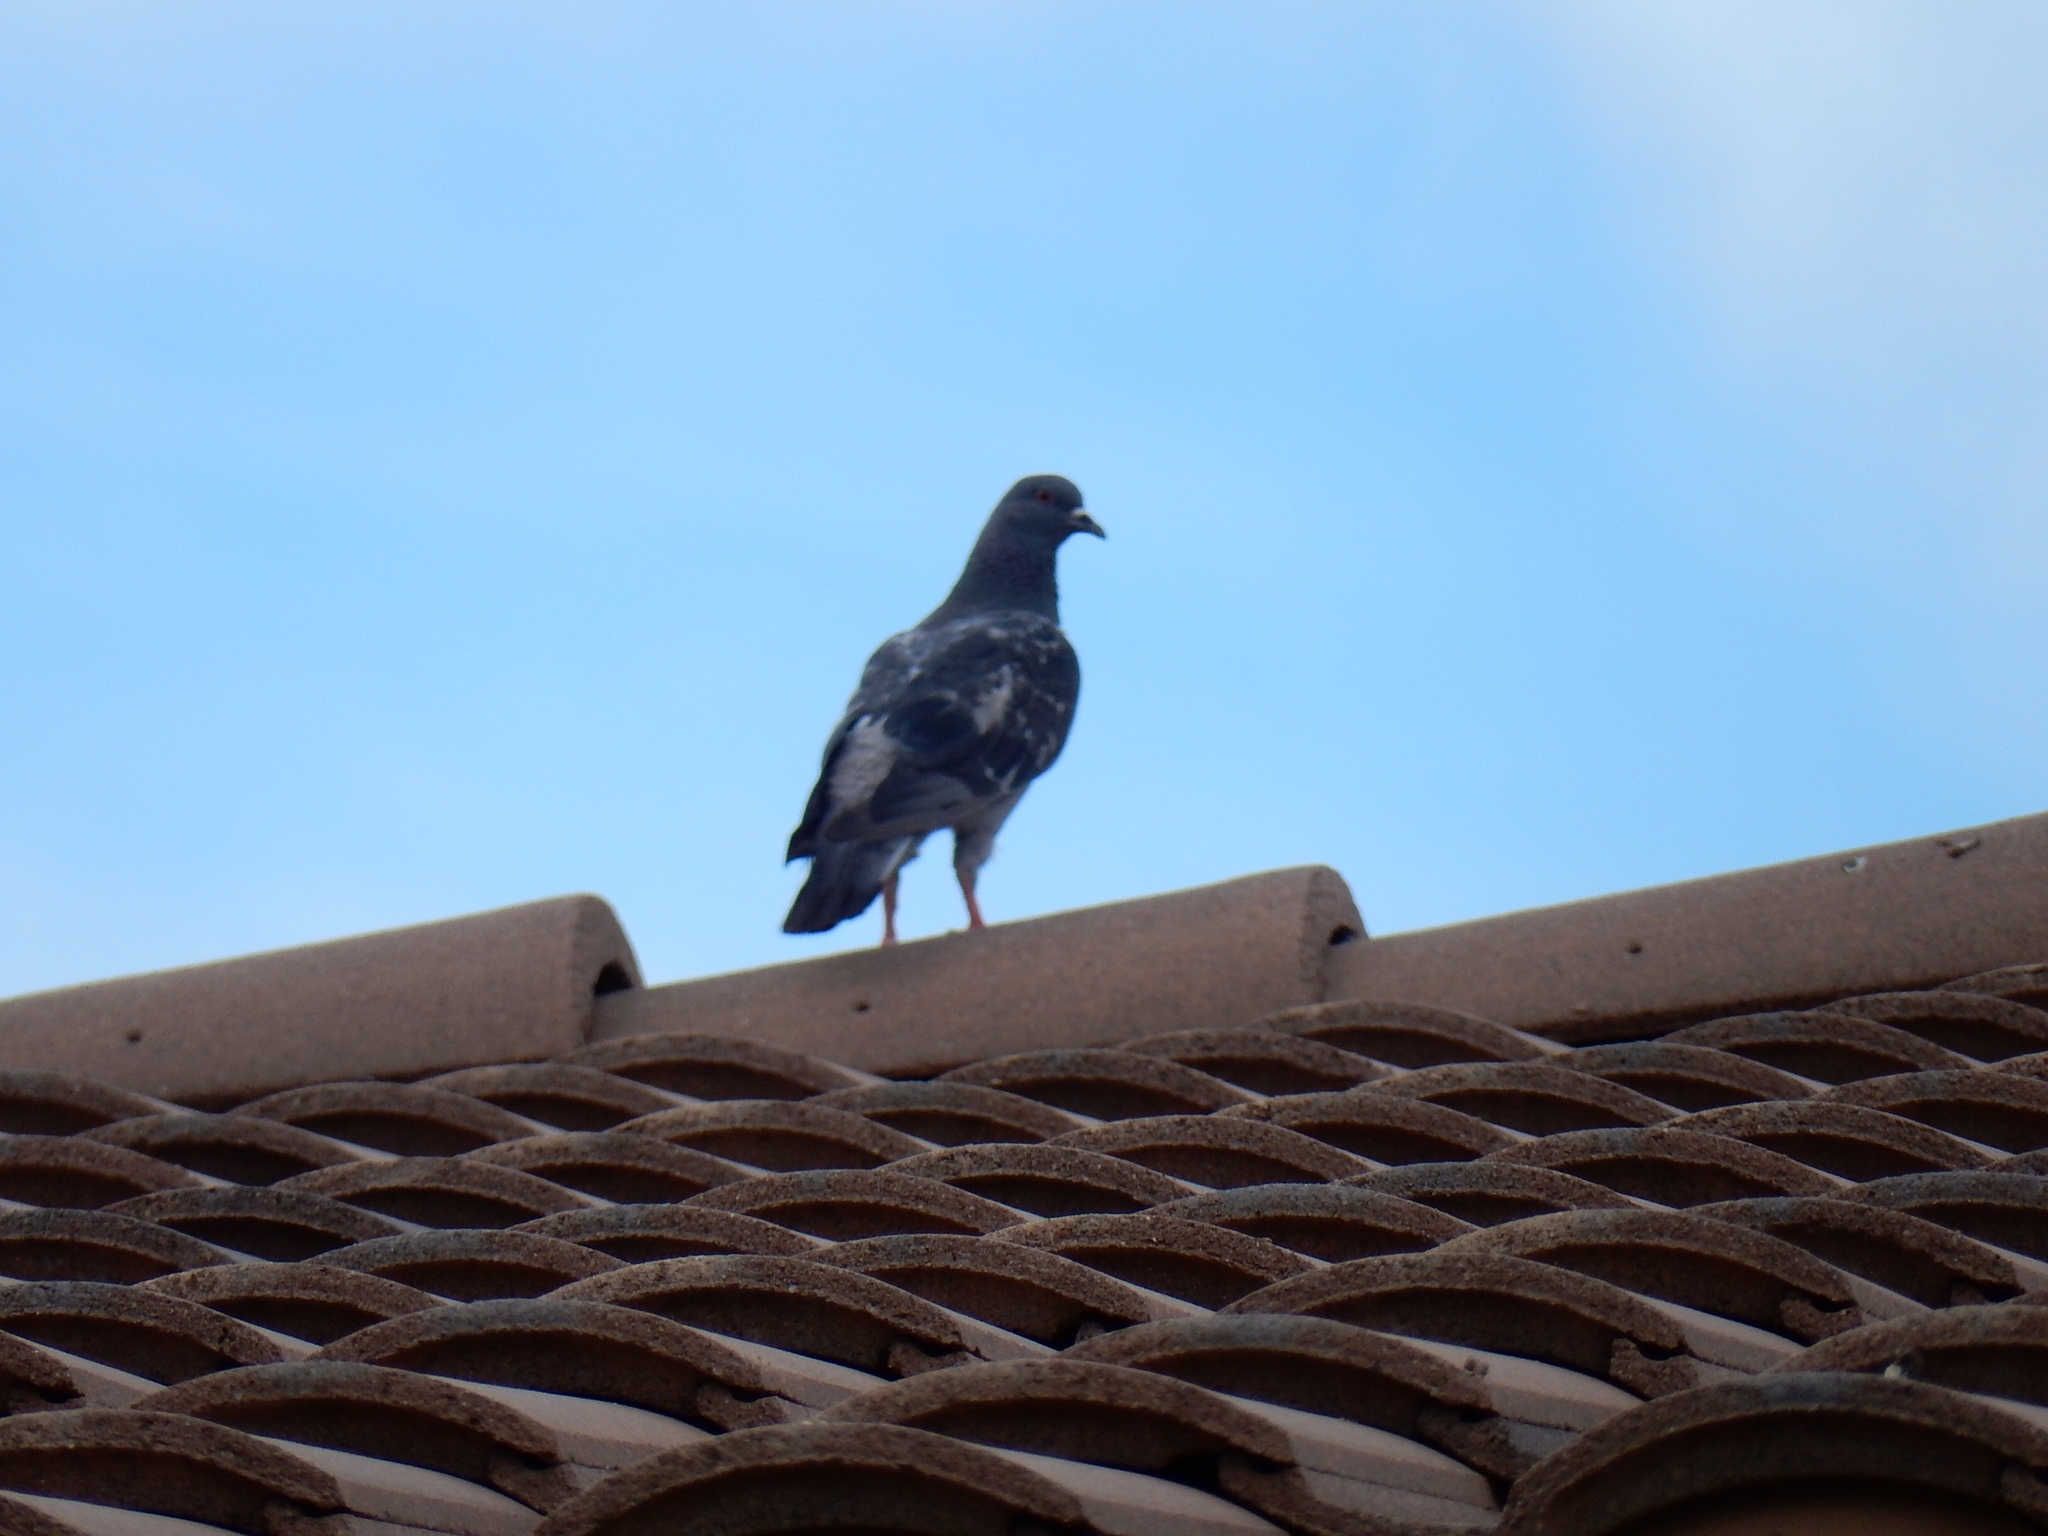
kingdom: Animalia
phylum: Chordata
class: Aves
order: Columbiformes
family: Columbidae
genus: Columba
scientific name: Columba livia
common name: Rock pigeon
